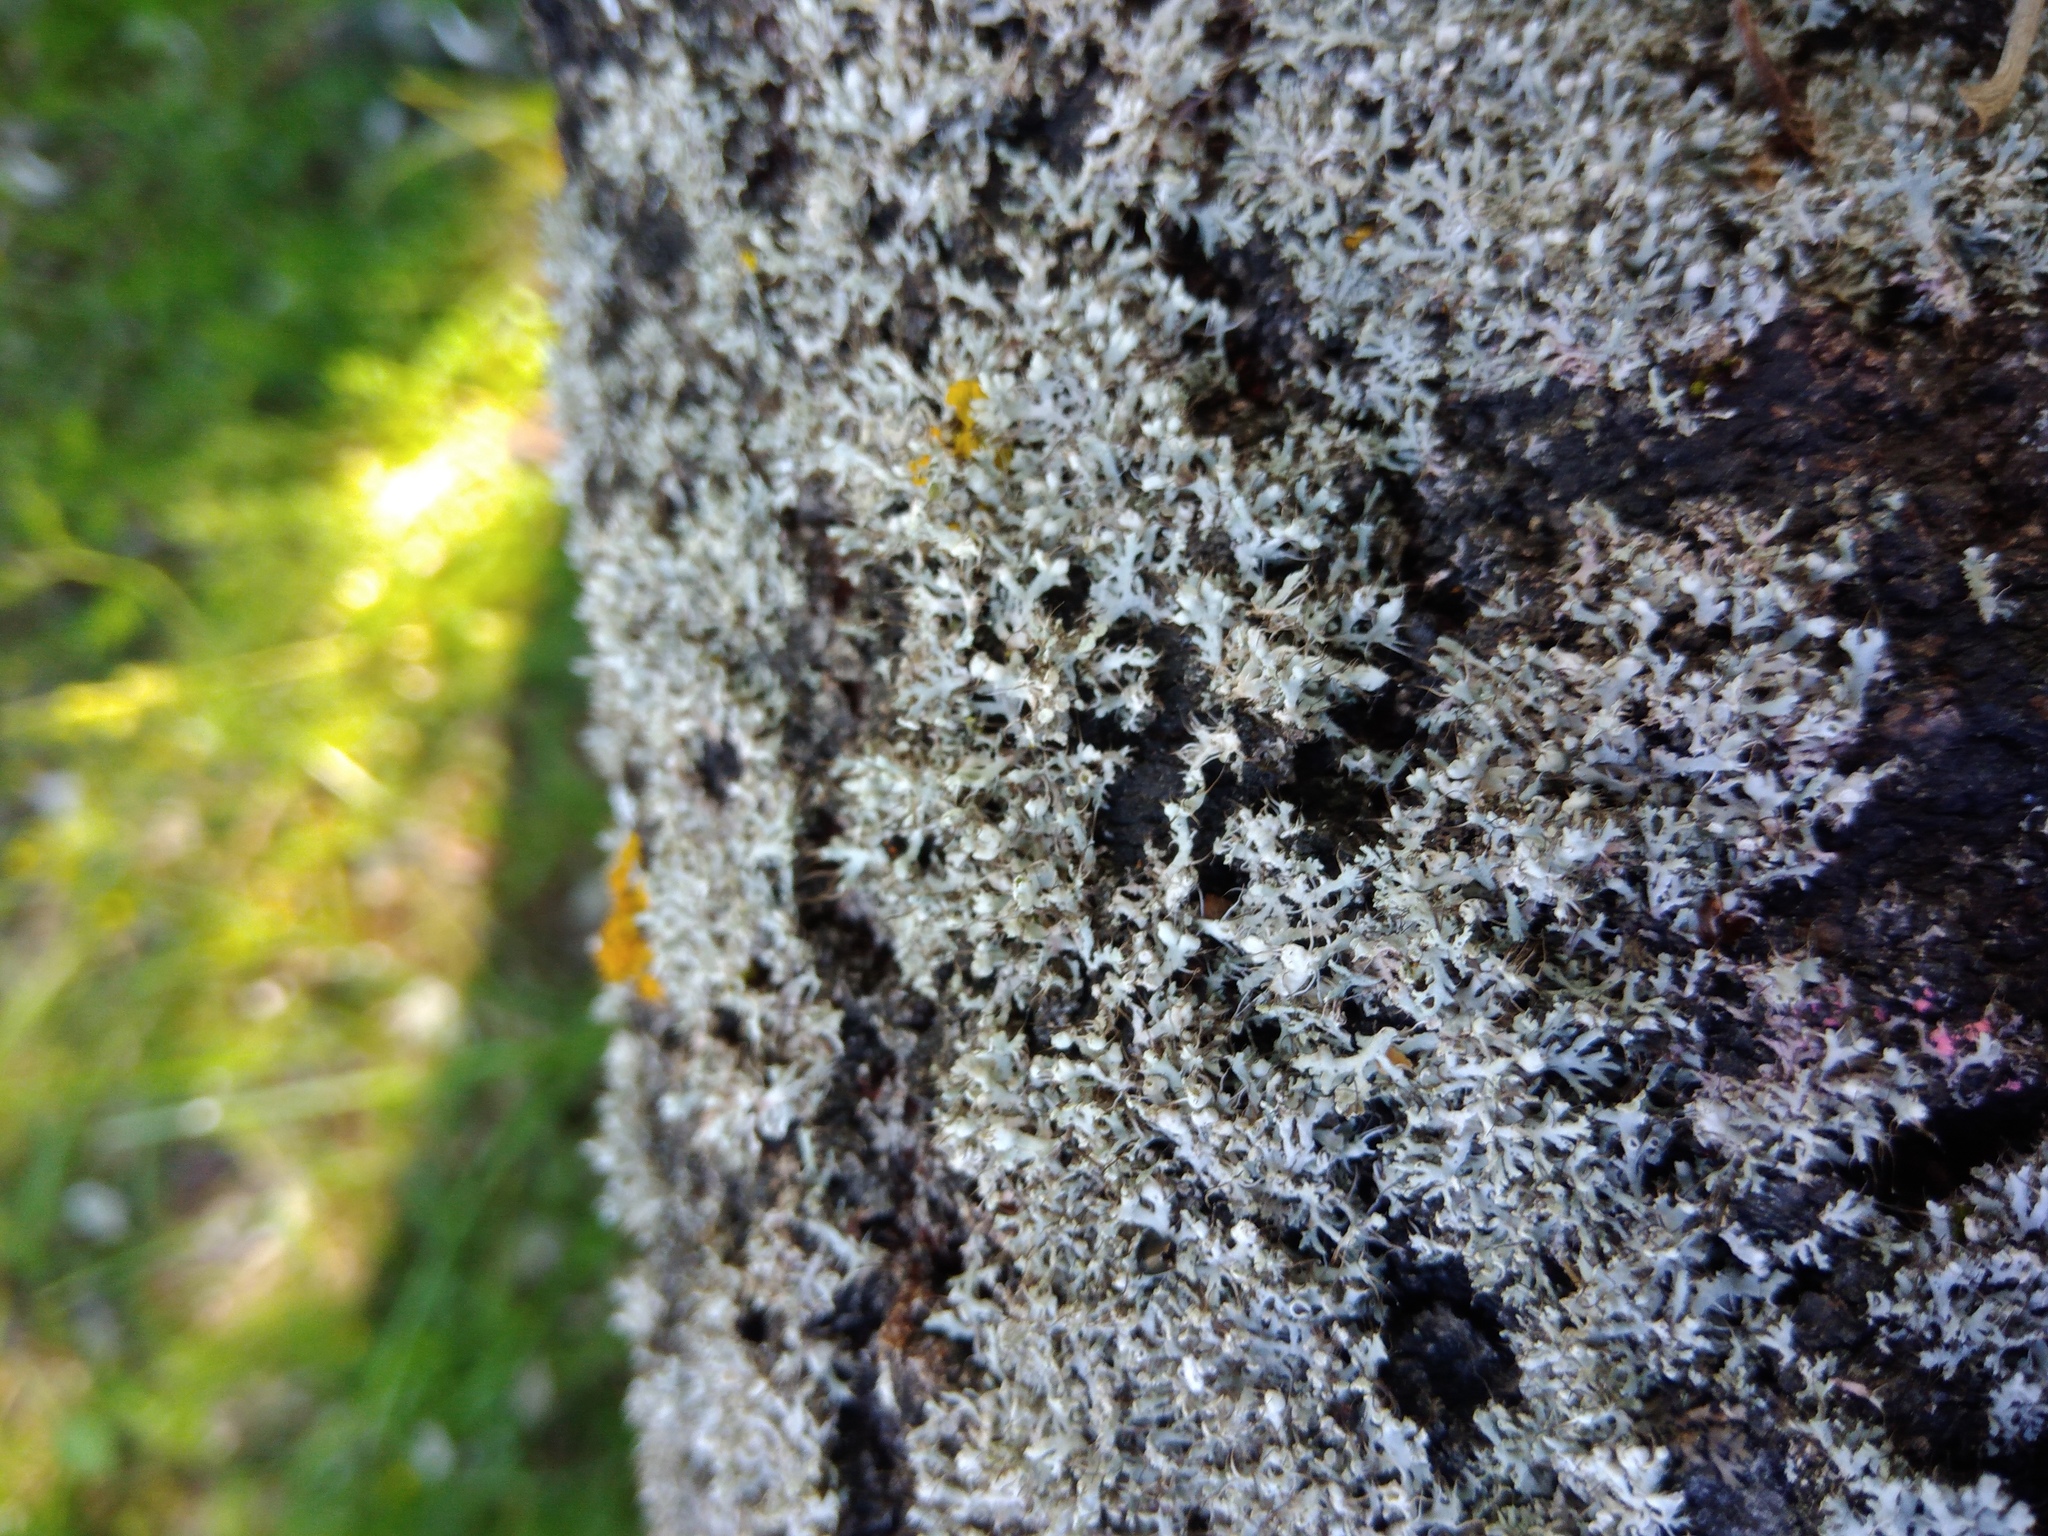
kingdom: Fungi
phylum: Ascomycota
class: Lecanoromycetes
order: Caliciales
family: Physciaceae
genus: Physcia
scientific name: Physcia adscendens
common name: Hooded rosette lichen
